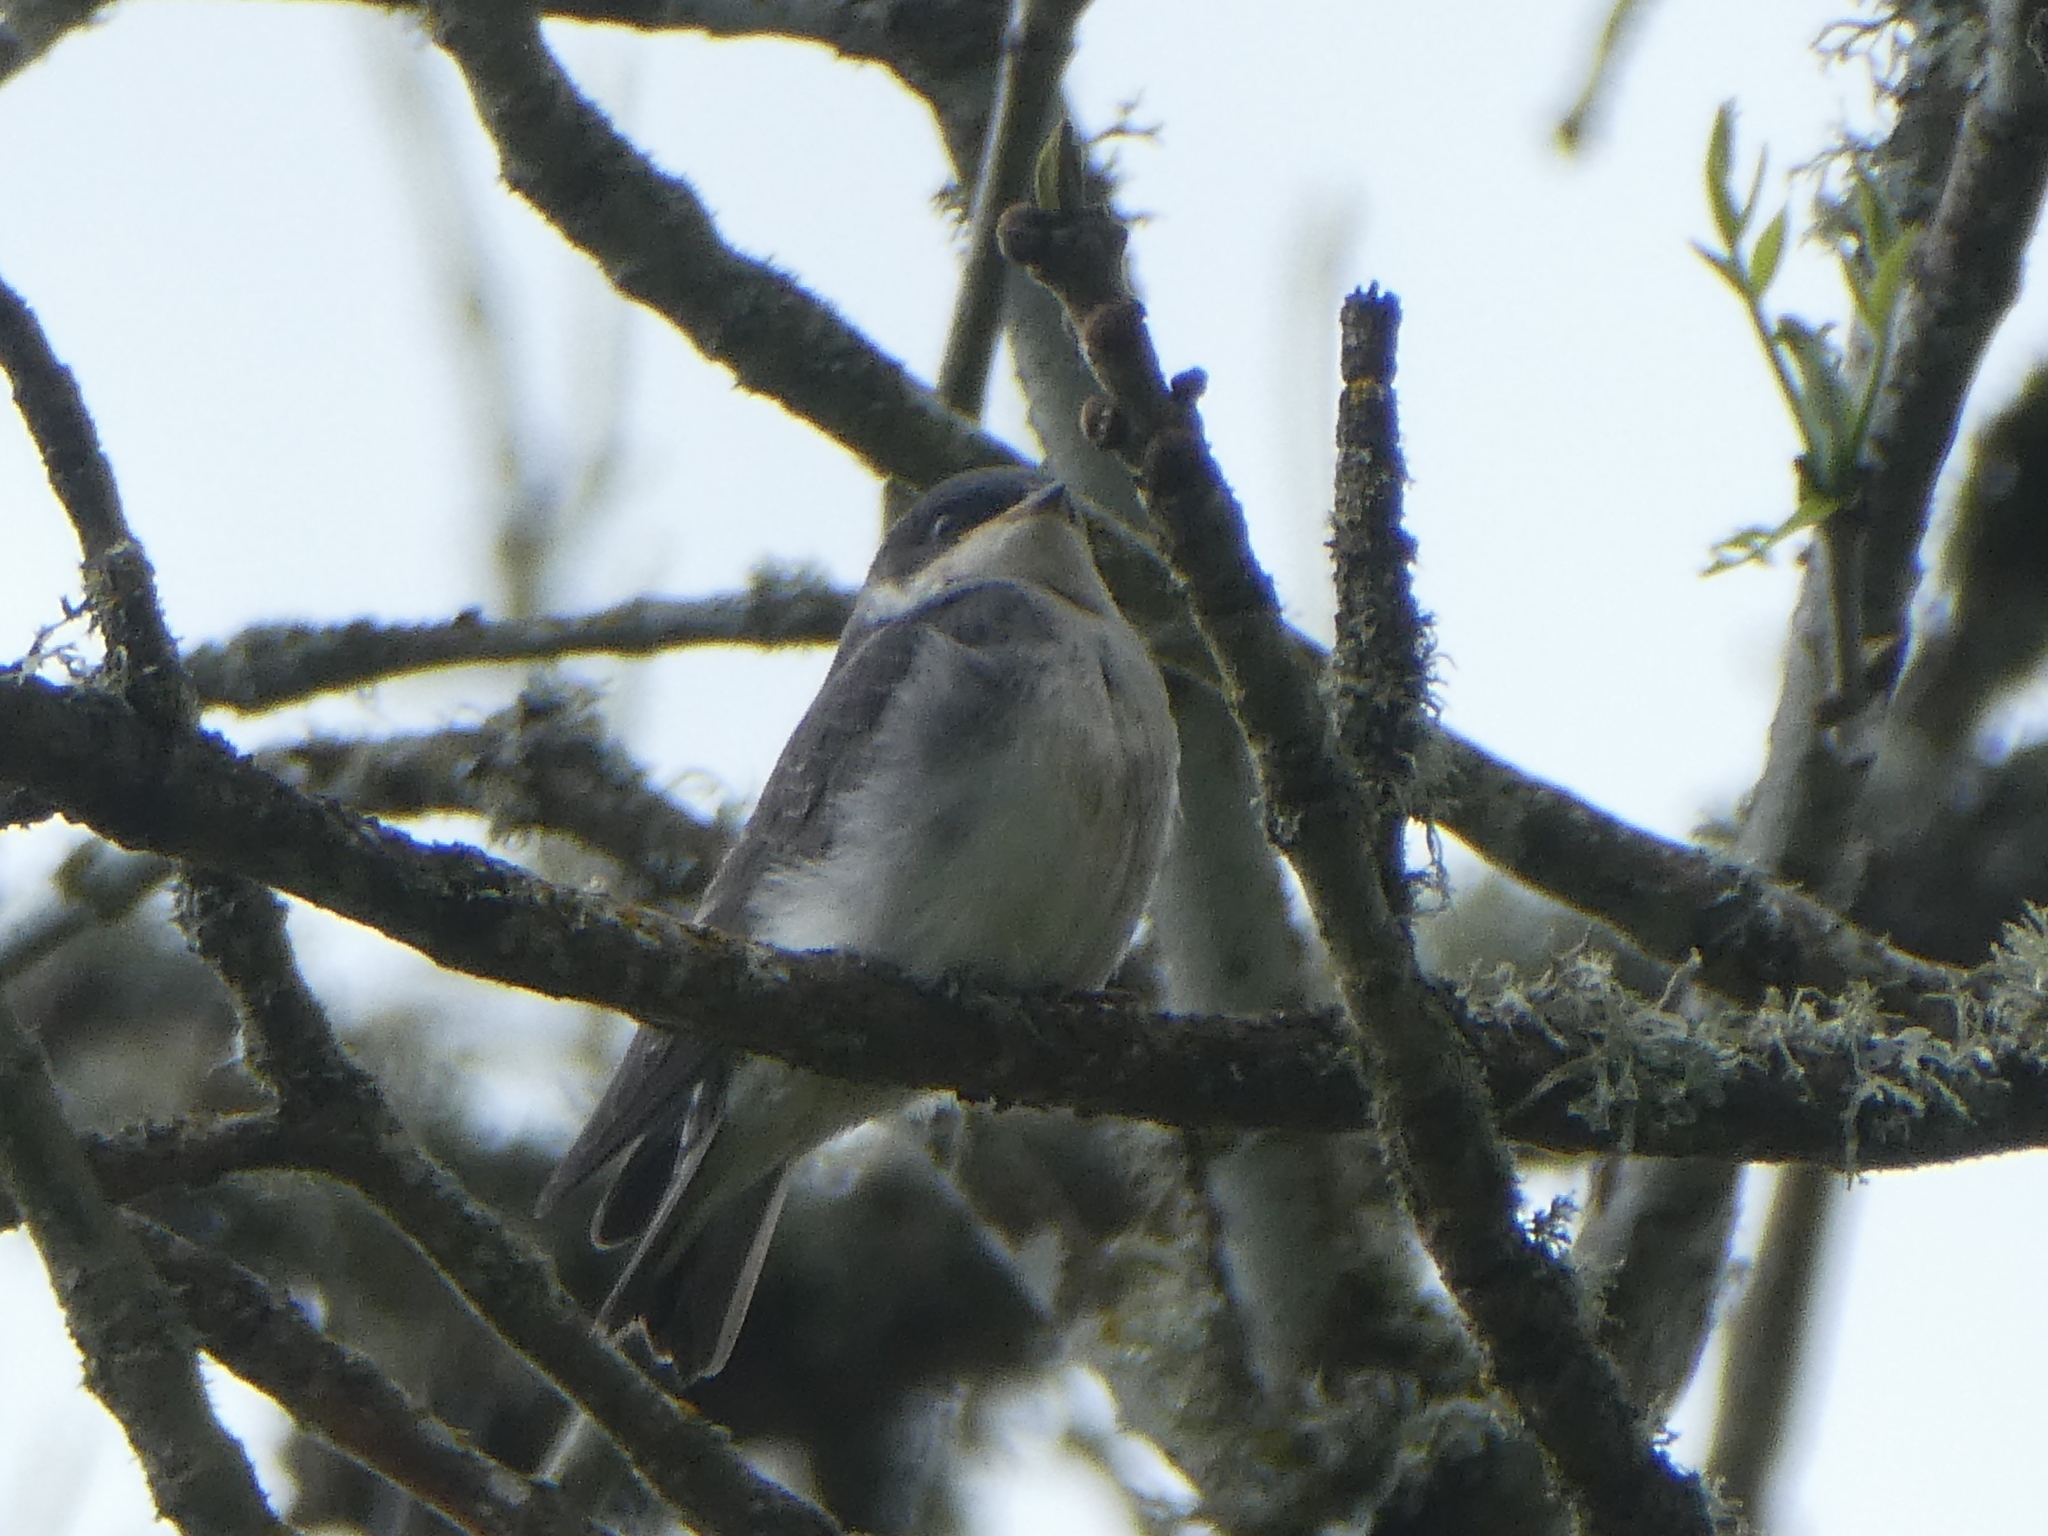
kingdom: Animalia
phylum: Chordata
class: Aves
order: Passeriformes
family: Hirundinidae
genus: Tachycineta
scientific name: Tachycineta bicolor
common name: Tree swallow
